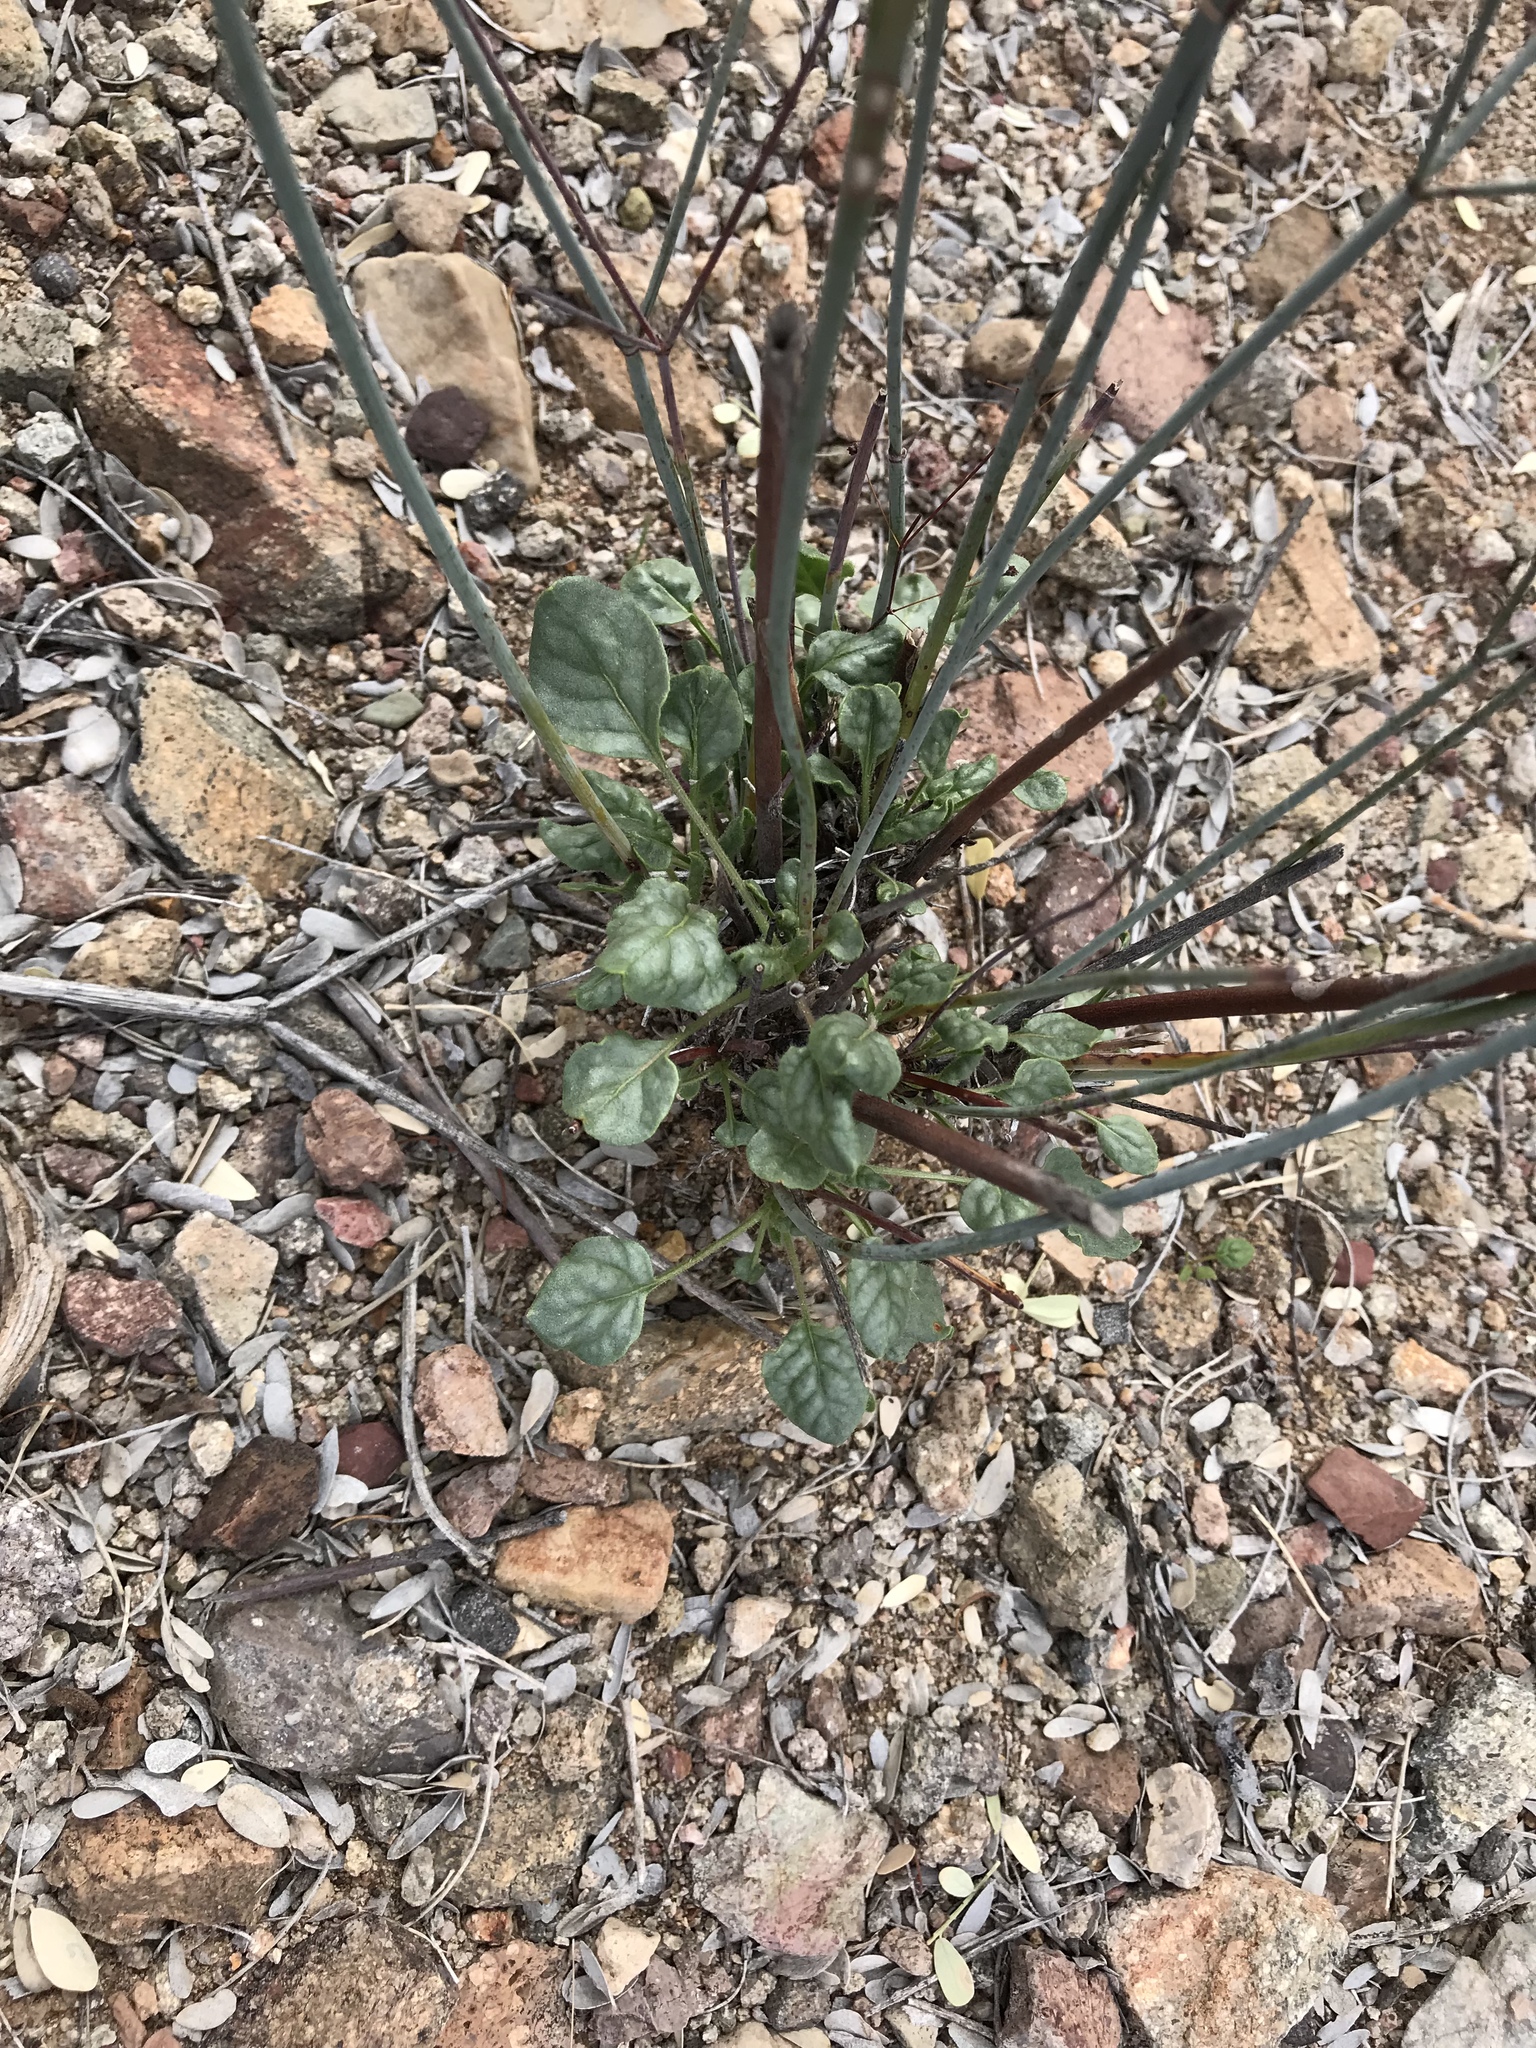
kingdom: Plantae
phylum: Tracheophyta
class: Magnoliopsida
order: Caryophyllales
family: Polygonaceae
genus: Eriogonum
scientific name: Eriogonum inflatum
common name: Desert trumpet
